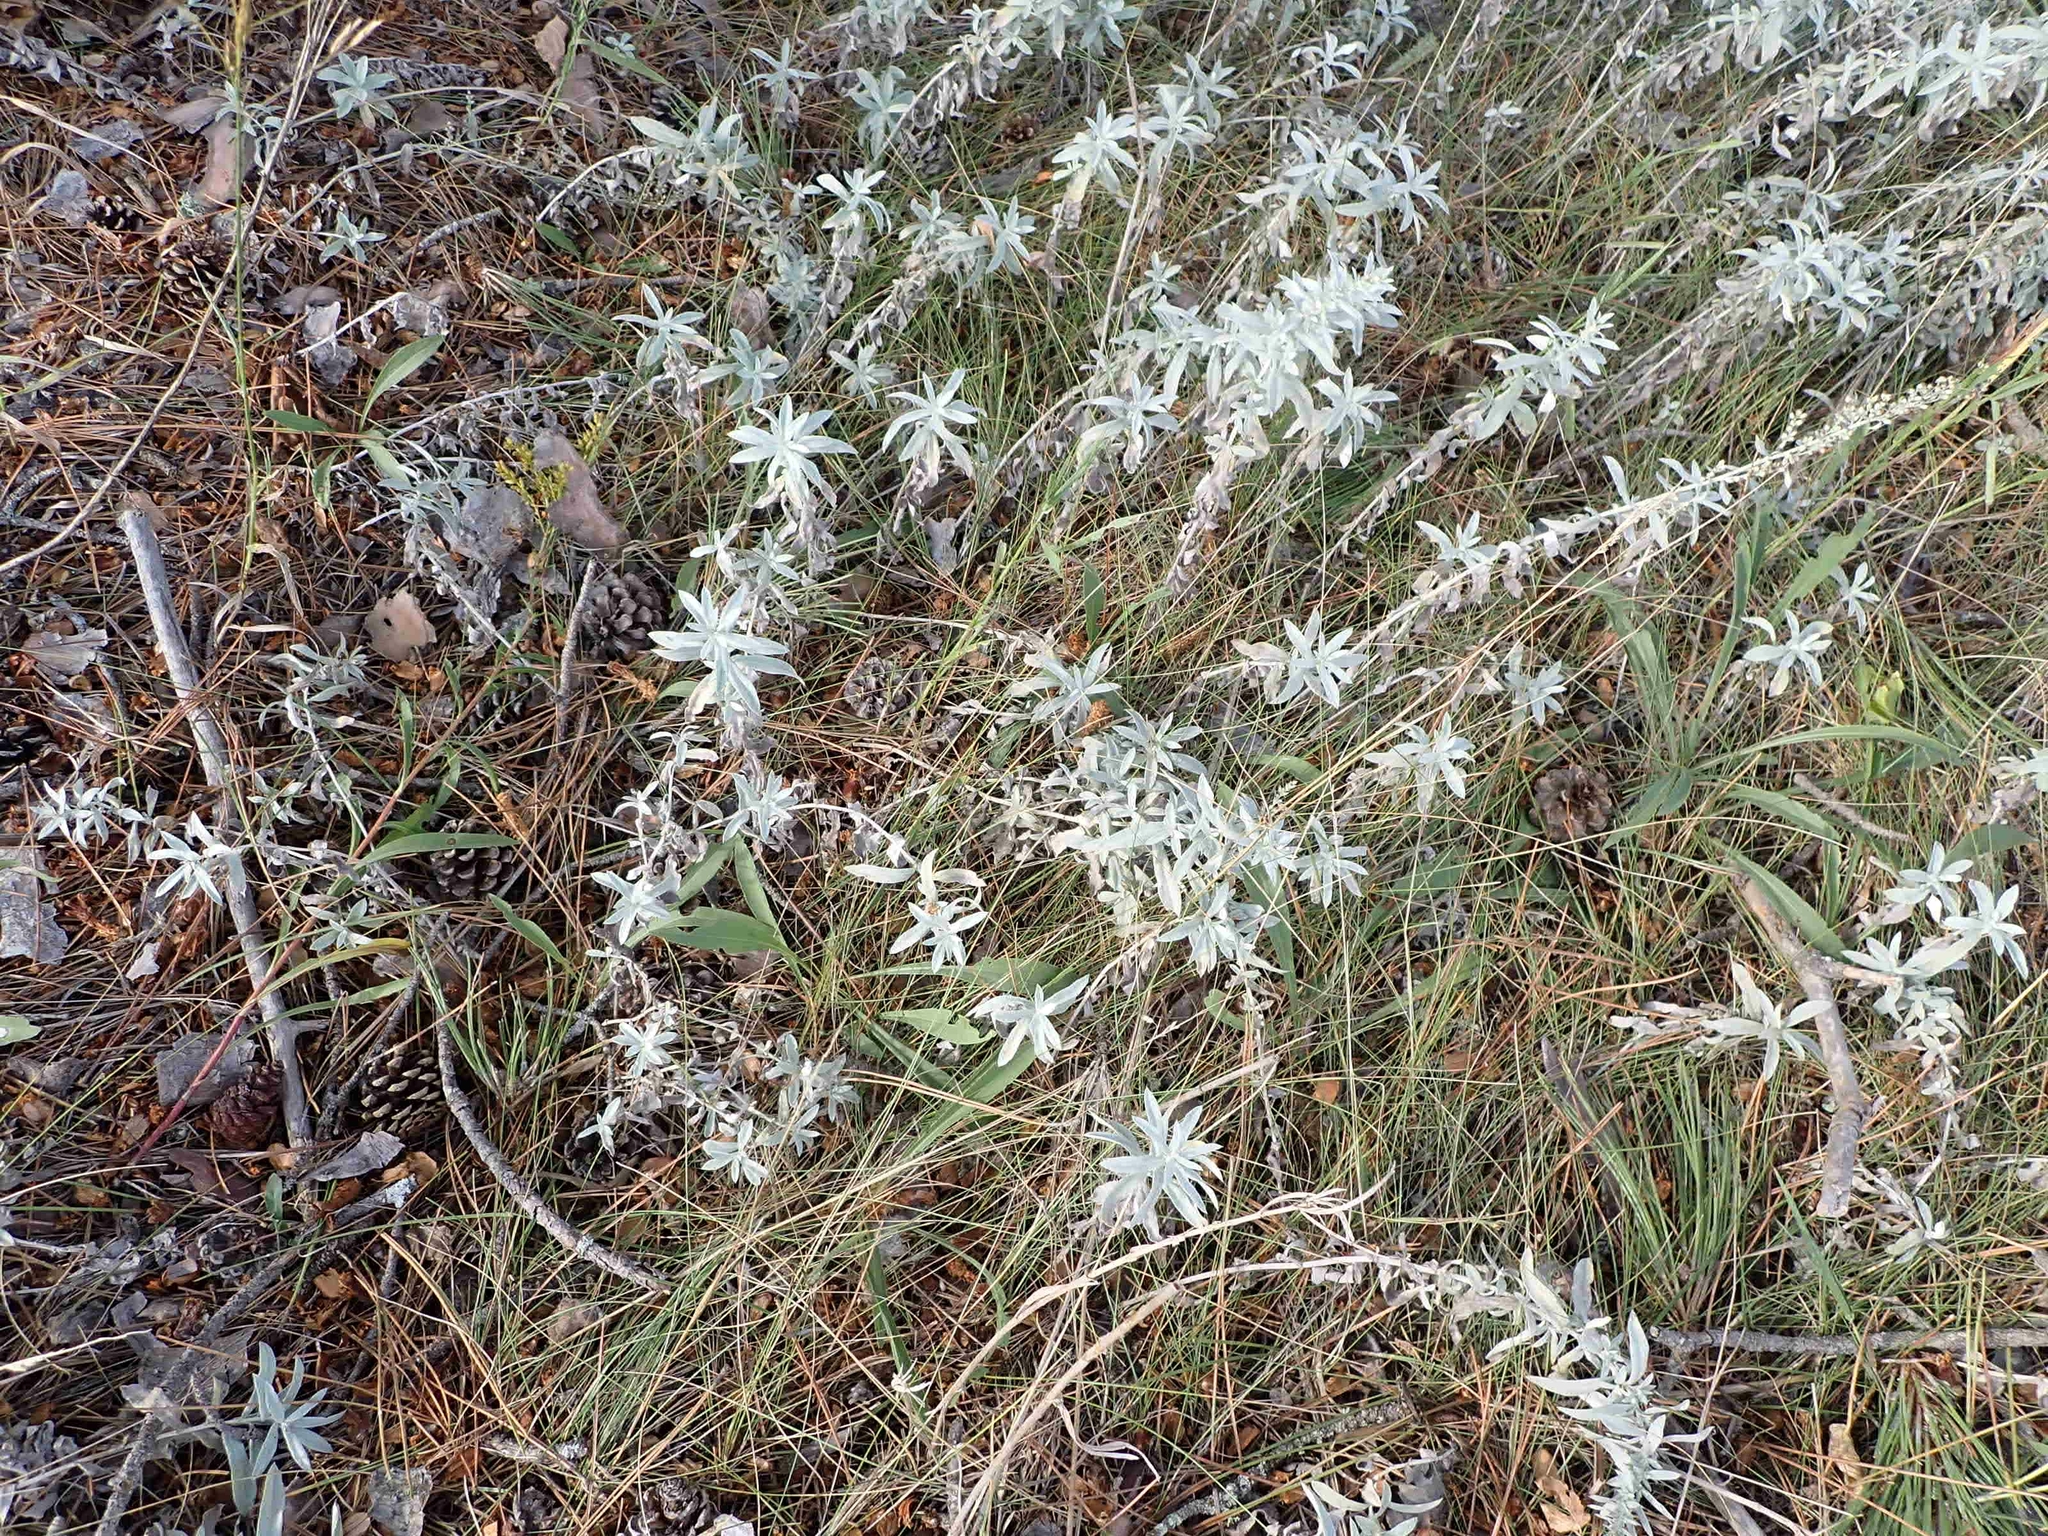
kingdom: Plantae
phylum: Tracheophyta
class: Magnoliopsida
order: Asterales
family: Asteraceae
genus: Artemisia
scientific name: Artemisia ludoviciana
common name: Western mugwort
